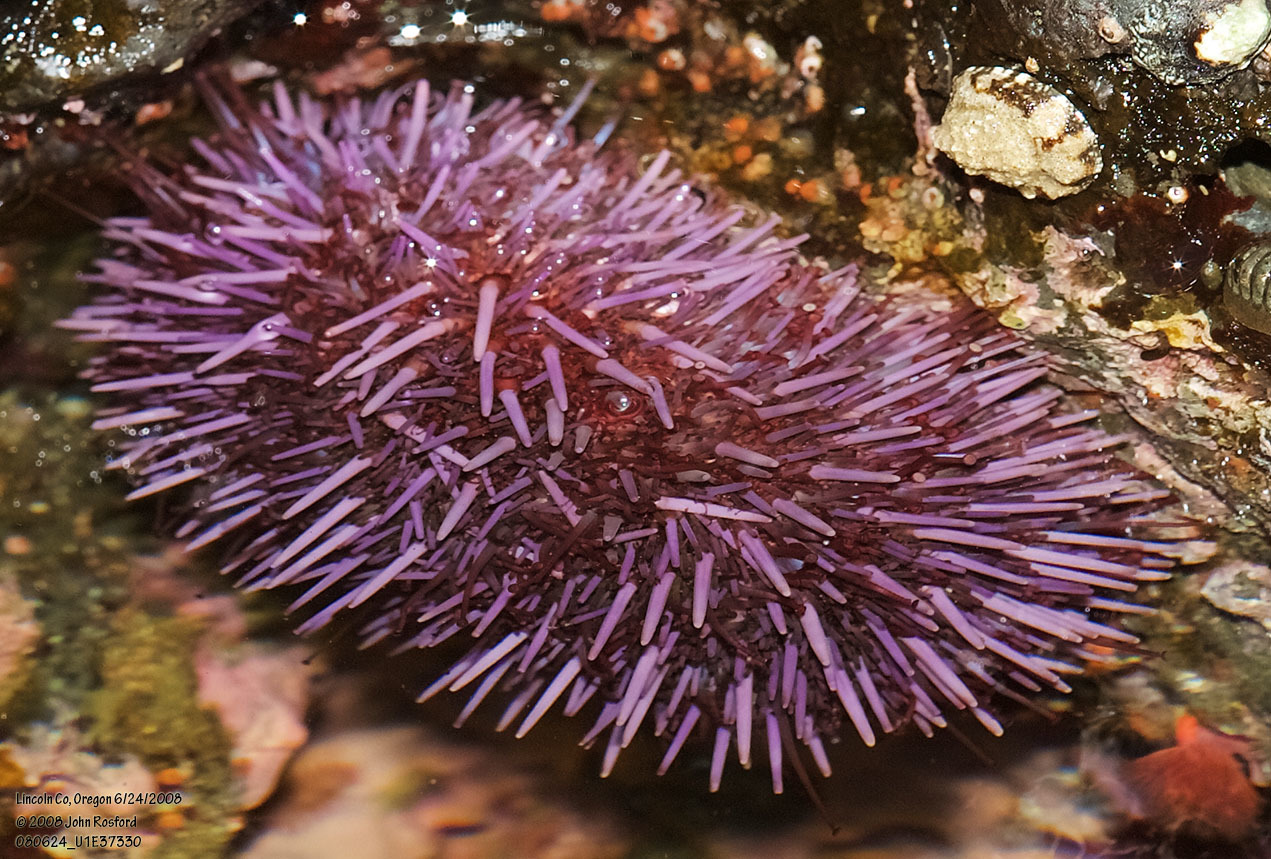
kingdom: Animalia
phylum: Echinodermata
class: Echinoidea
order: Camarodonta
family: Strongylocentrotidae
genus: Strongylocentrotus
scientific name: Strongylocentrotus purpuratus
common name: Purple sea urchin
